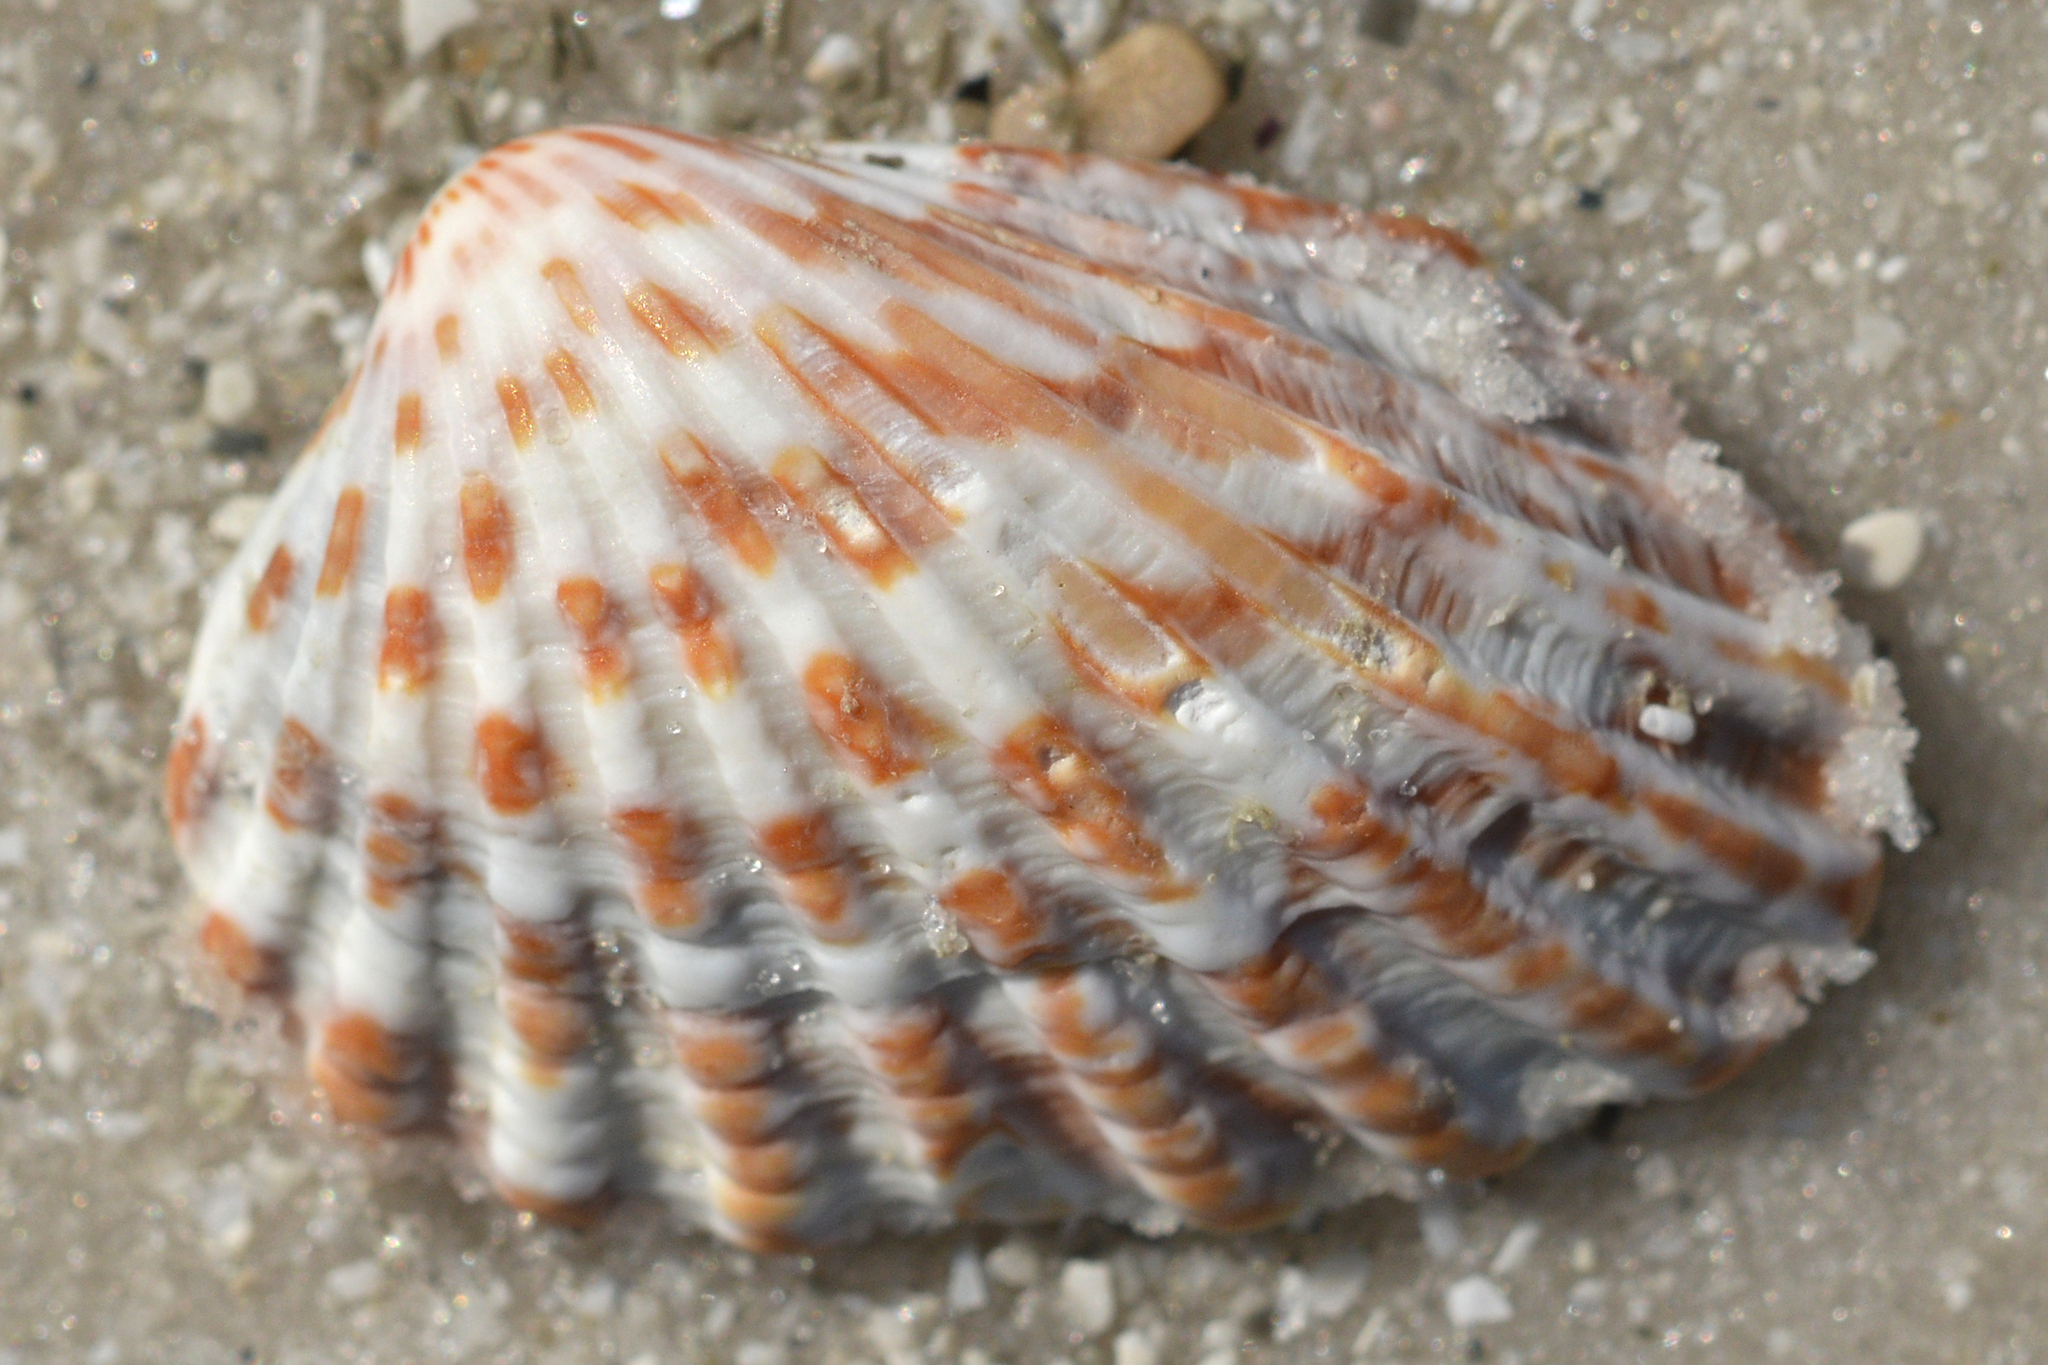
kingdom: Animalia
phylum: Mollusca
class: Bivalvia
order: Carditida
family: Carditidae
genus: Cardites
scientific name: Cardites floridanus
